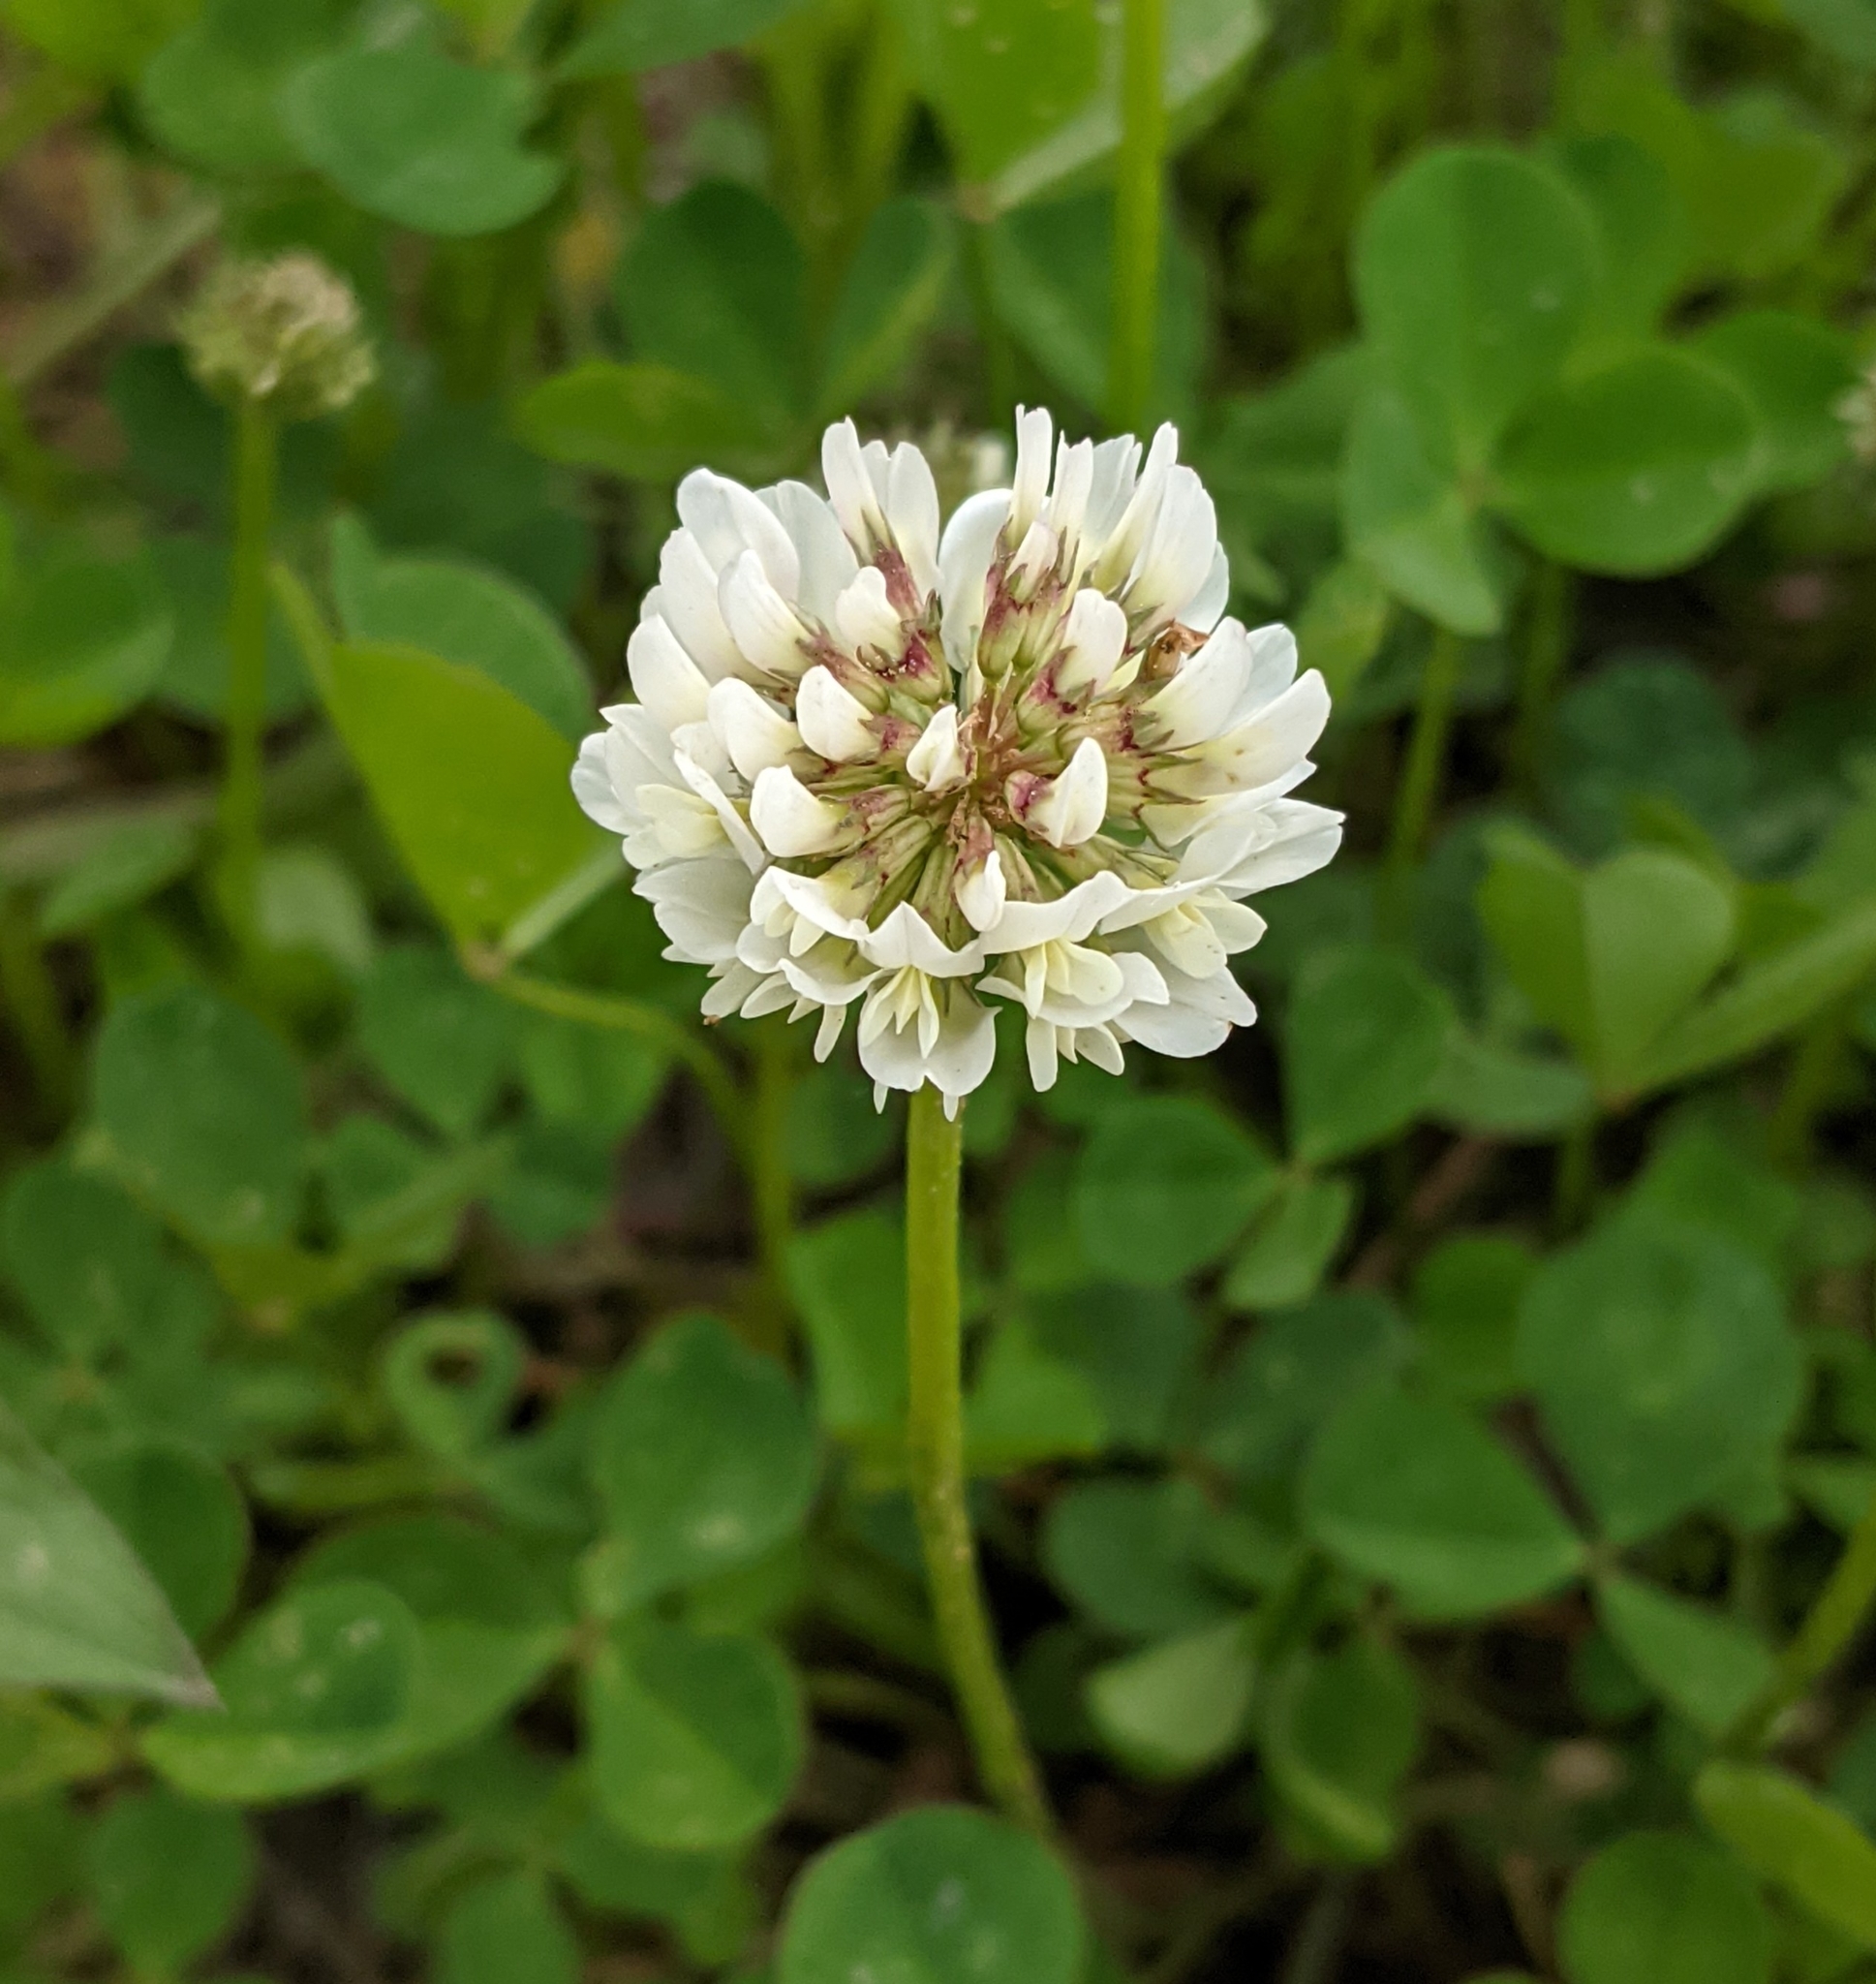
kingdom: Plantae
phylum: Tracheophyta
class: Magnoliopsida
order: Fabales
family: Fabaceae
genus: Trifolium
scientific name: Trifolium repens
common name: White clover
